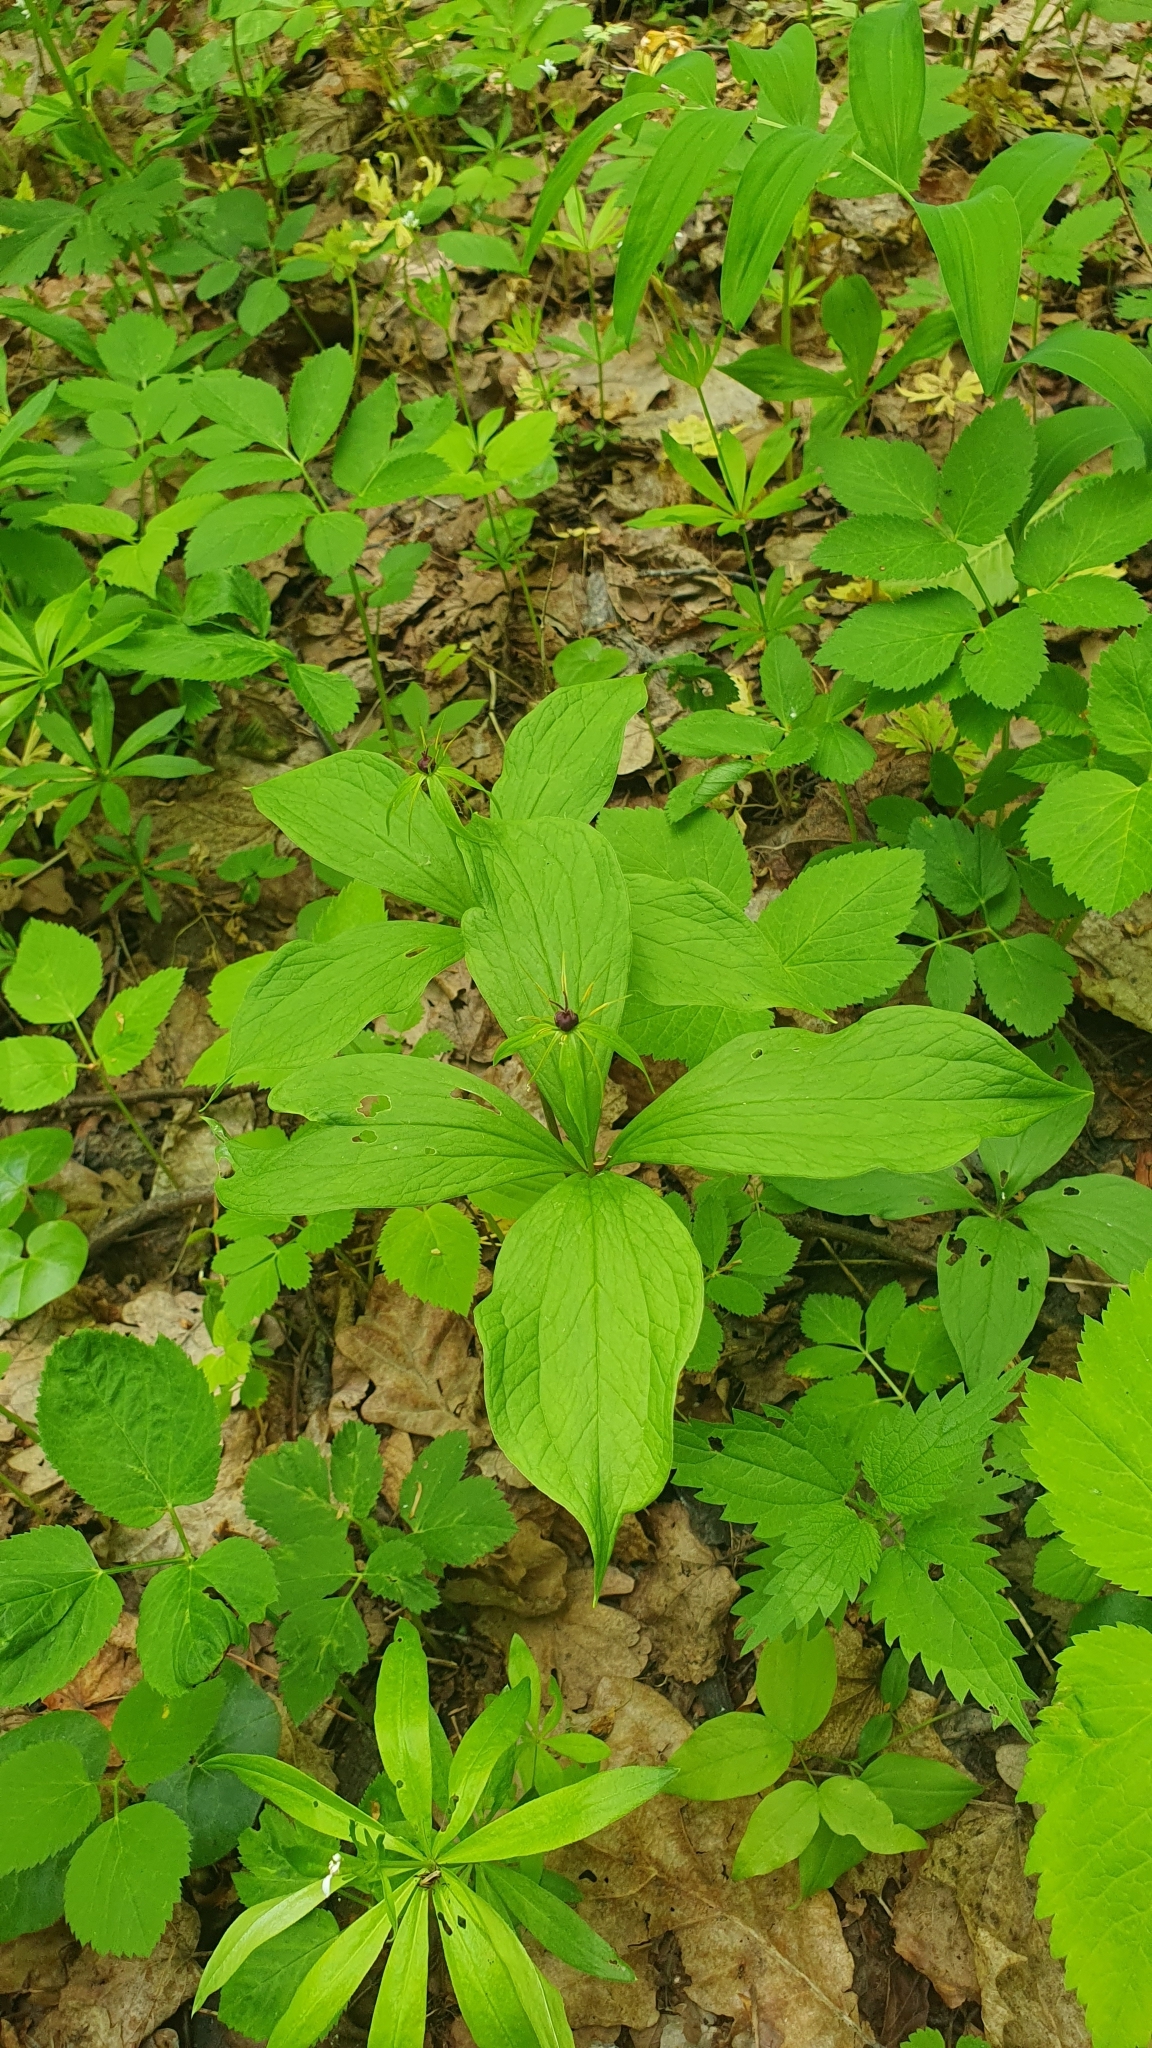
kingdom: Plantae
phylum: Tracheophyta
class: Liliopsida
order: Liliales
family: Melanthiaceae
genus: Paris
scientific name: Paris quadrifolia
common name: Herb-paris
